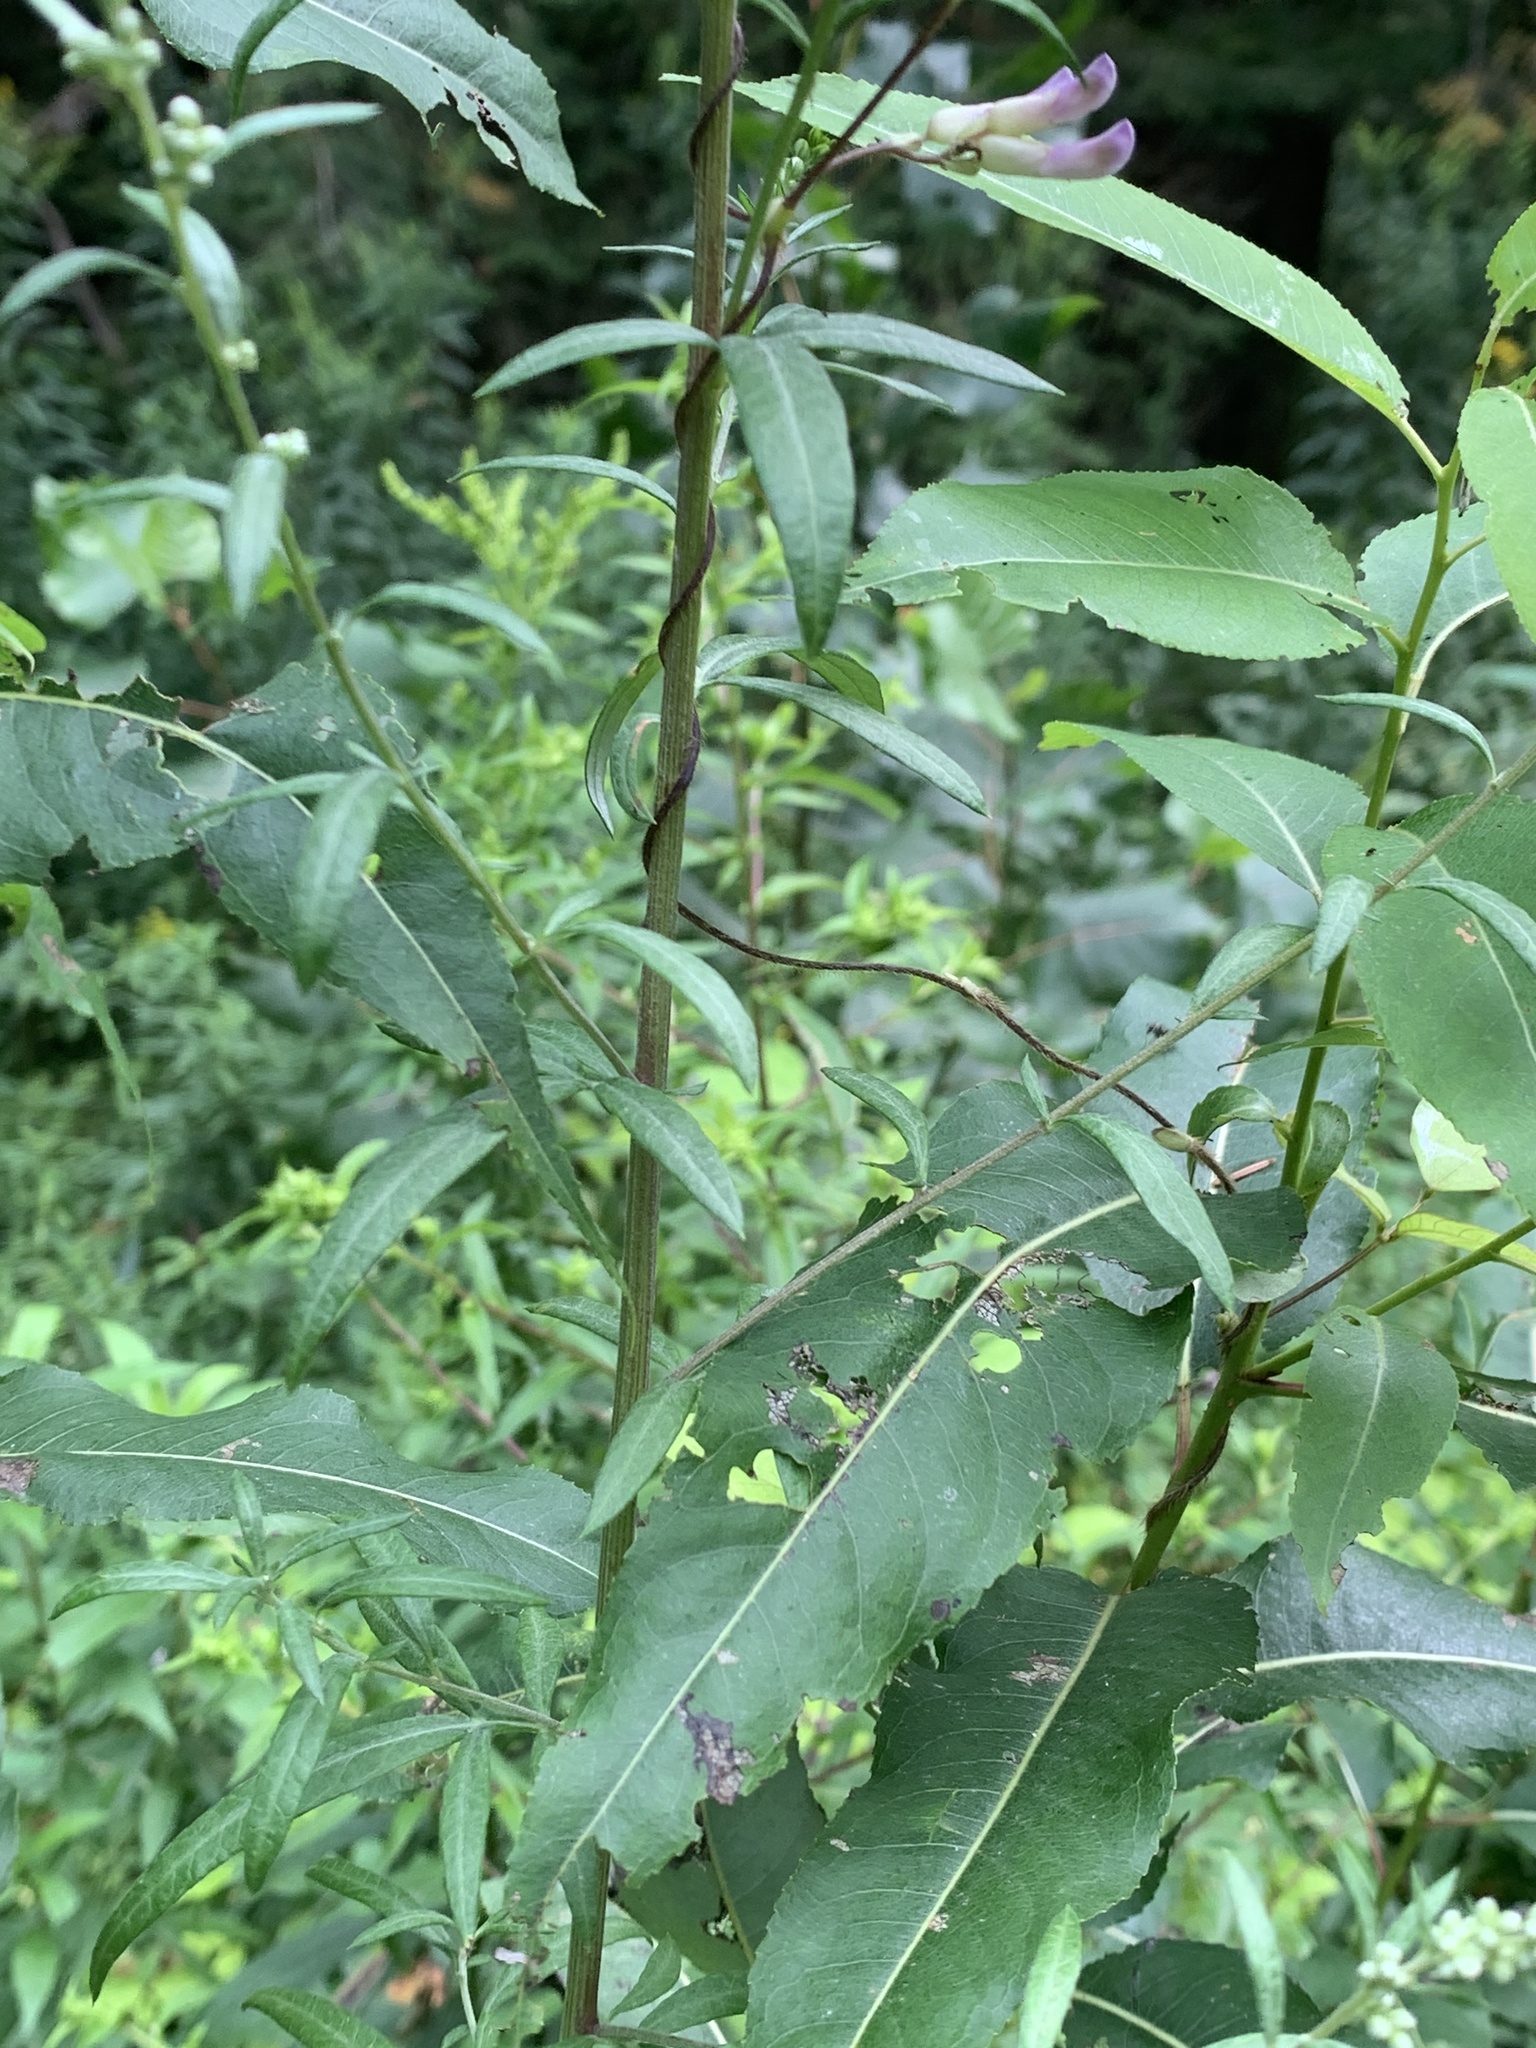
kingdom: Plantae
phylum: Tracheophyta
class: Magnoliopsida
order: Asterales
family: Asteraceae
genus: Artemisia
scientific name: Artemisia vulgaris
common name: Mugwort
